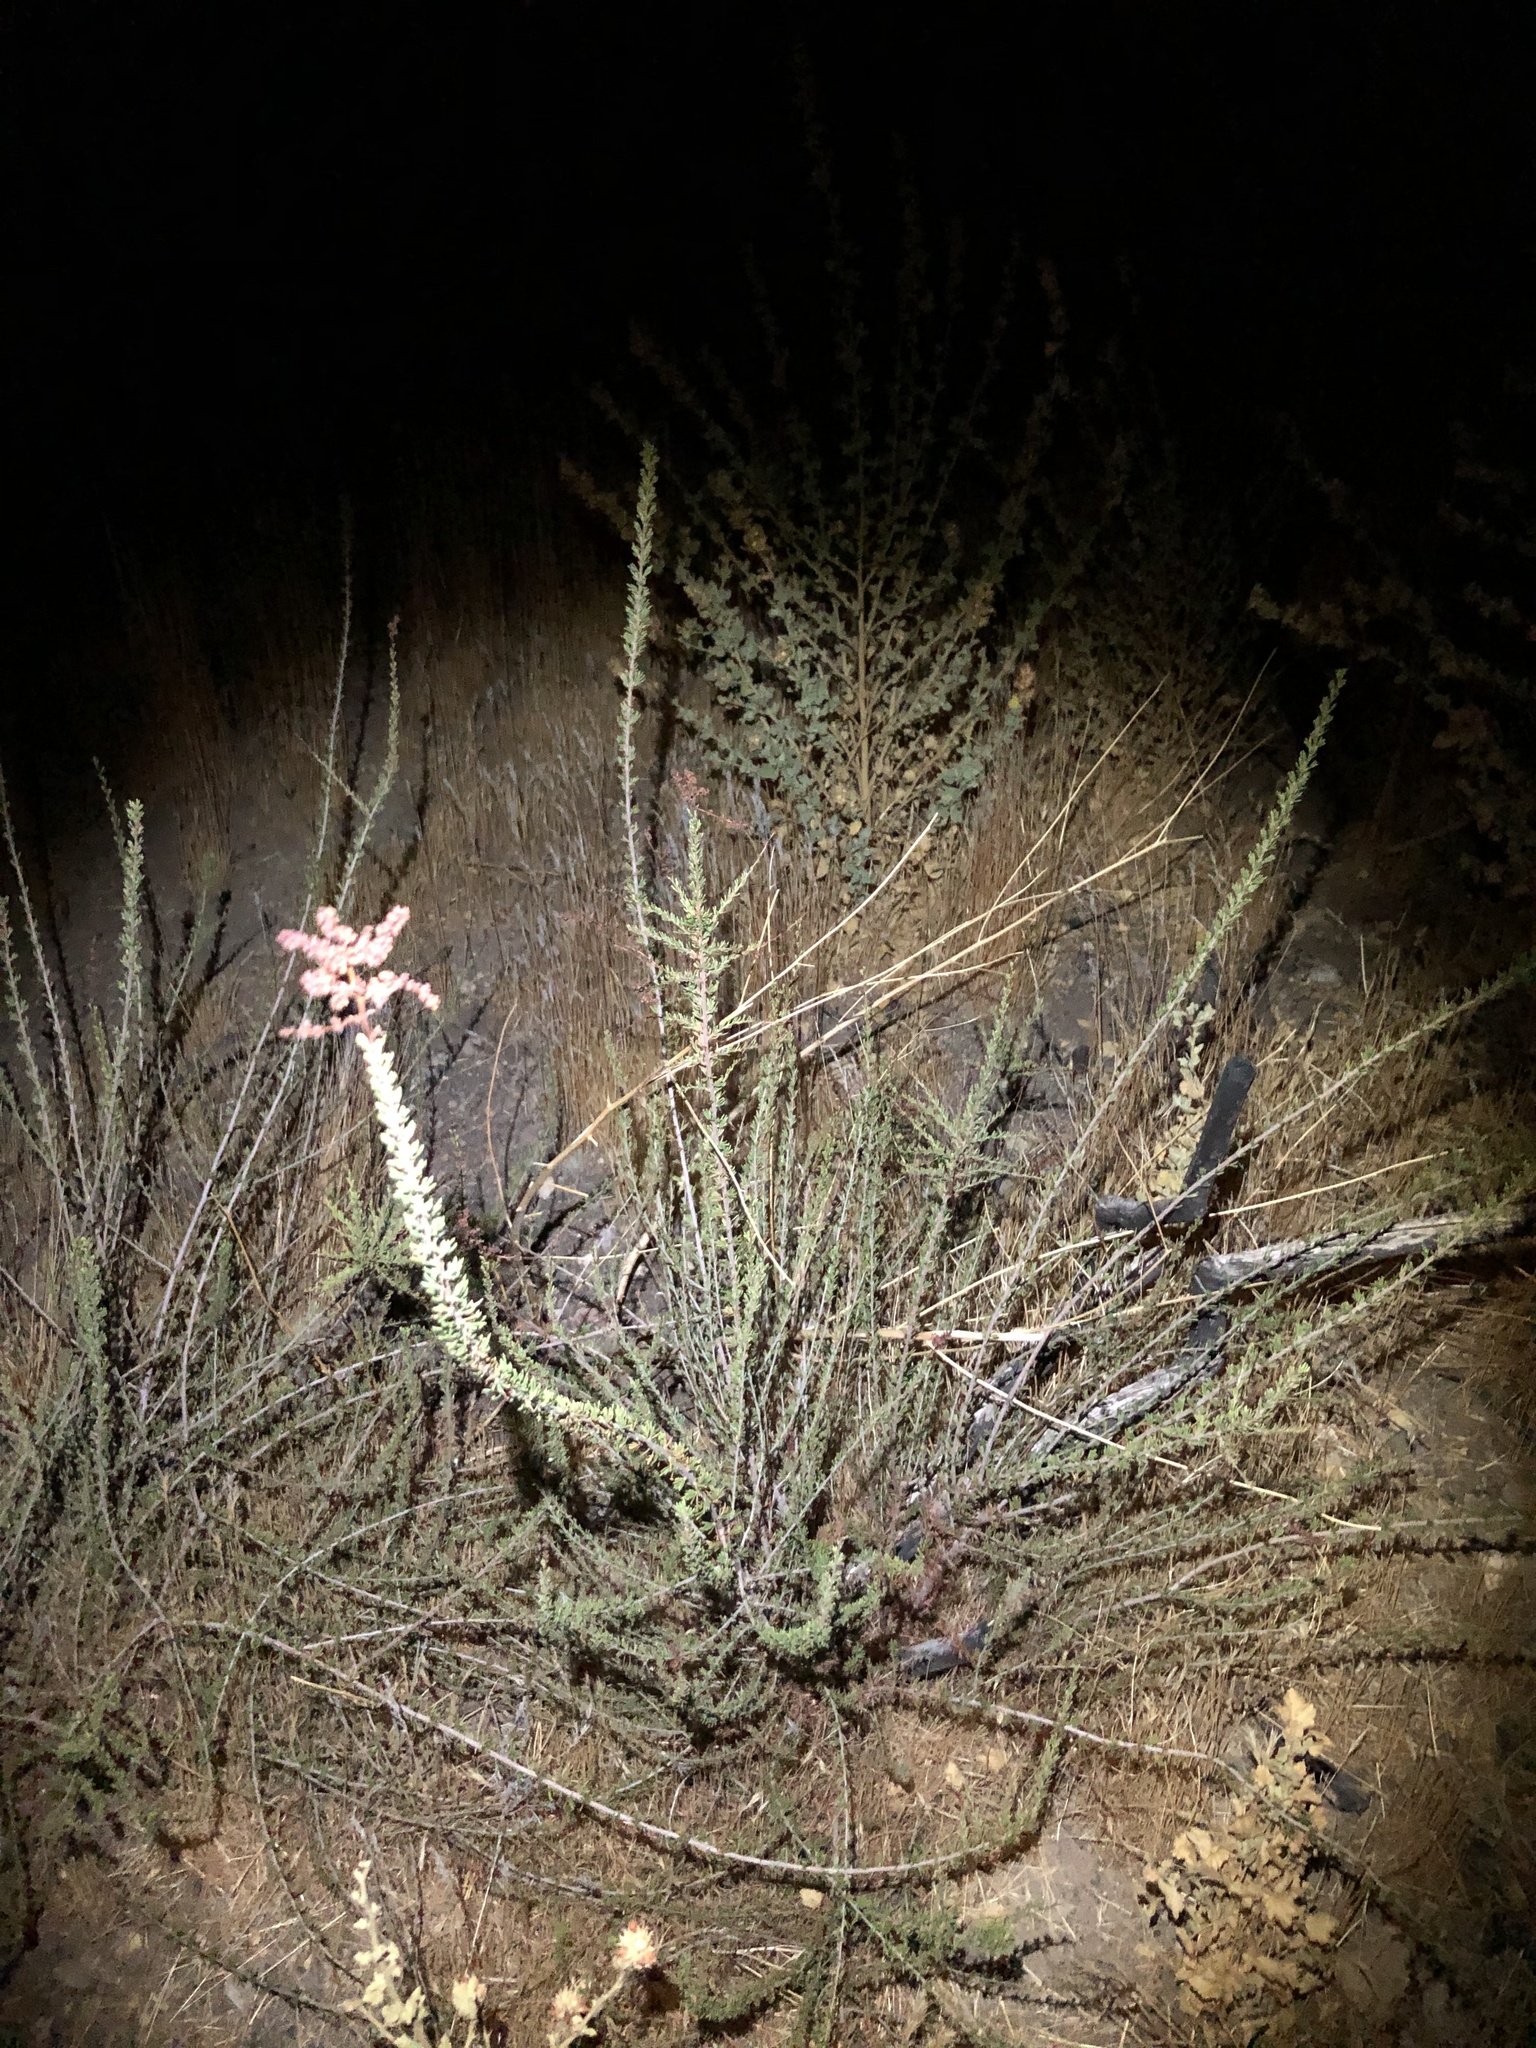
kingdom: Plantae
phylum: Tracheophyta
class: Magnoliopsida
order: Rosales
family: Rosaceae
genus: Adenostoma
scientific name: Adenostoma fasciculatum
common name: Chamise
